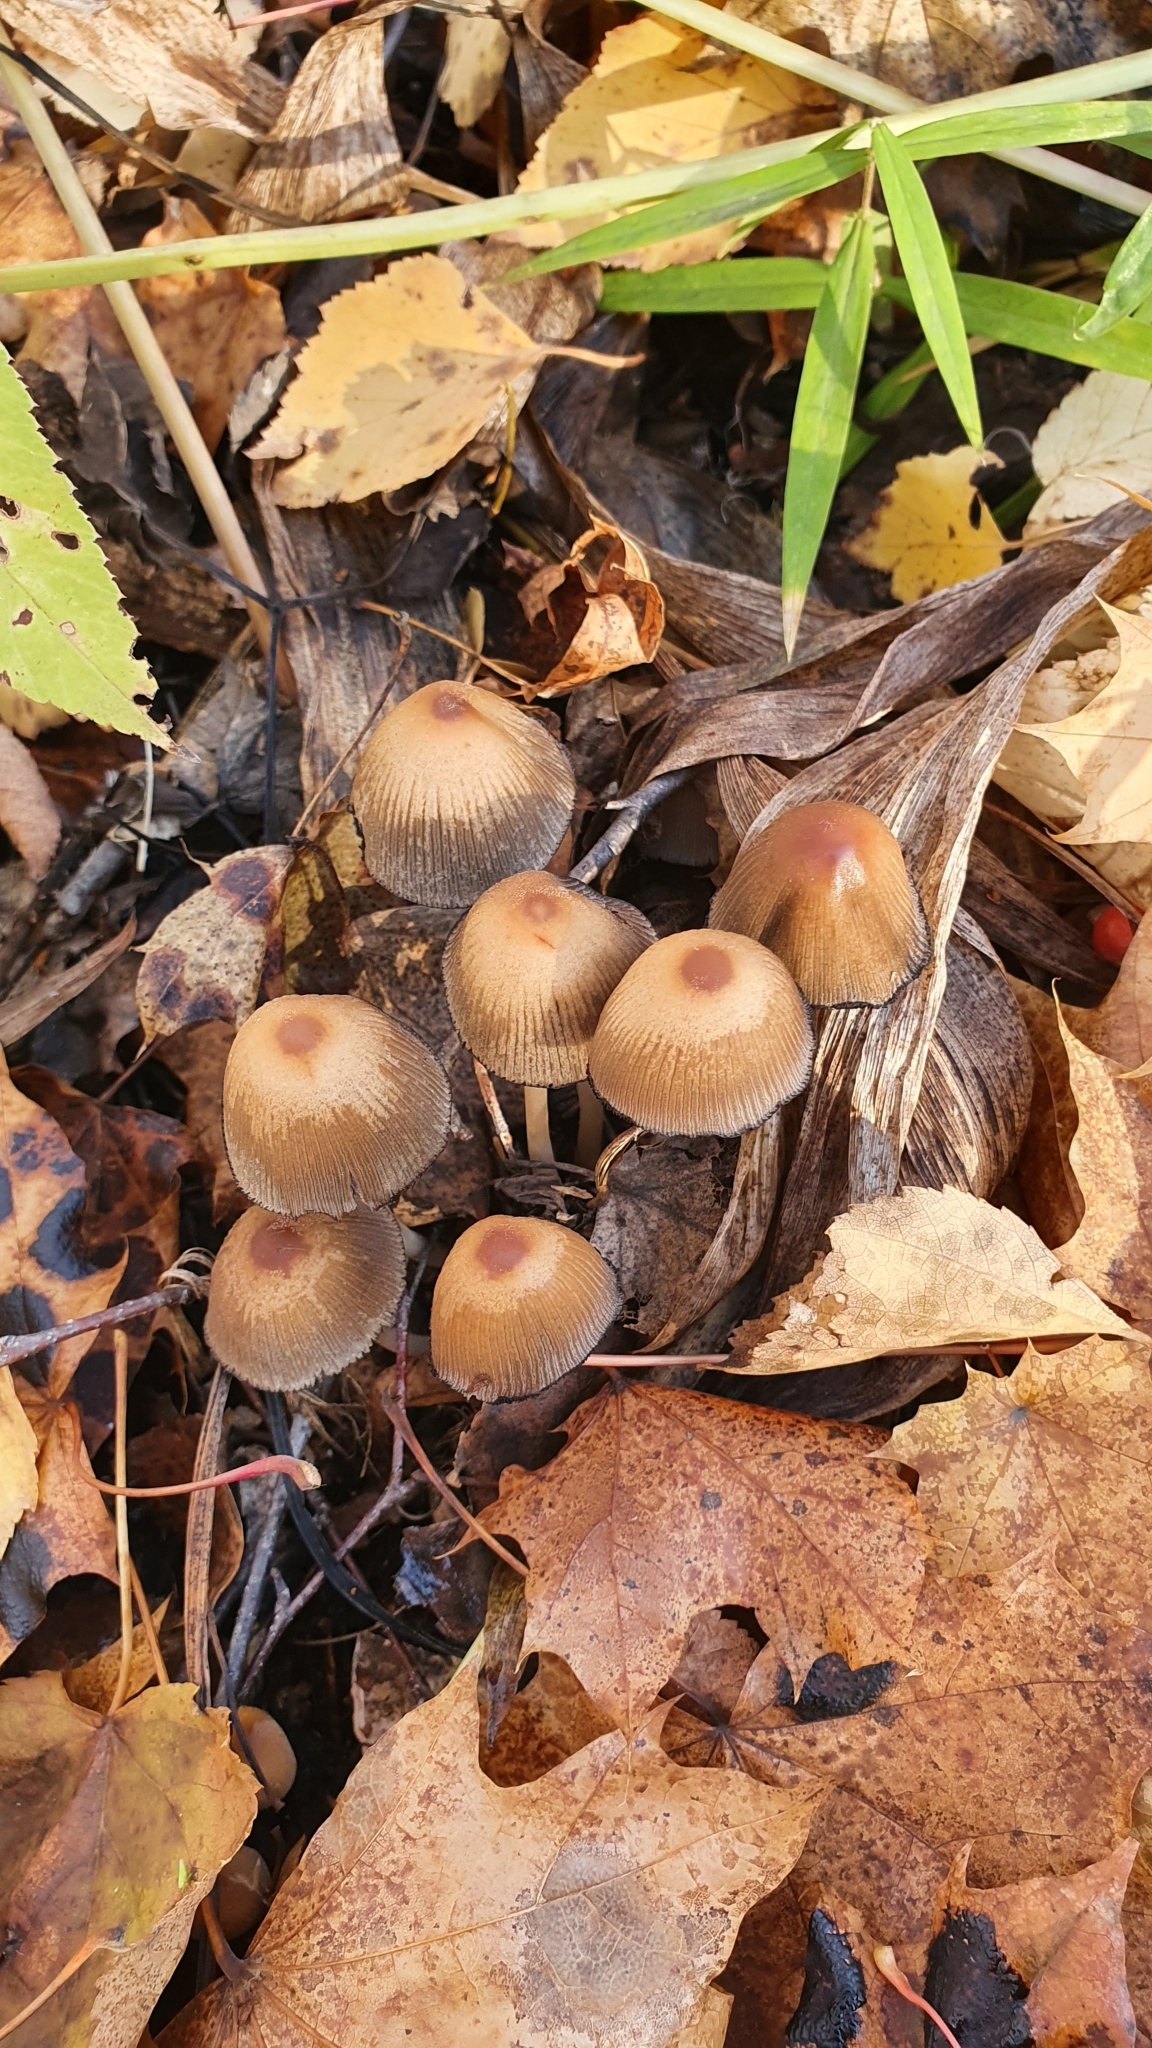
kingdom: Fungi
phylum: Basidiomycota
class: Agaricomycetes
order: Agaricales
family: Psathyrellaceae
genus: Coprinellus
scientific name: Coprinellus micaceus
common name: Glistening ink-cap
